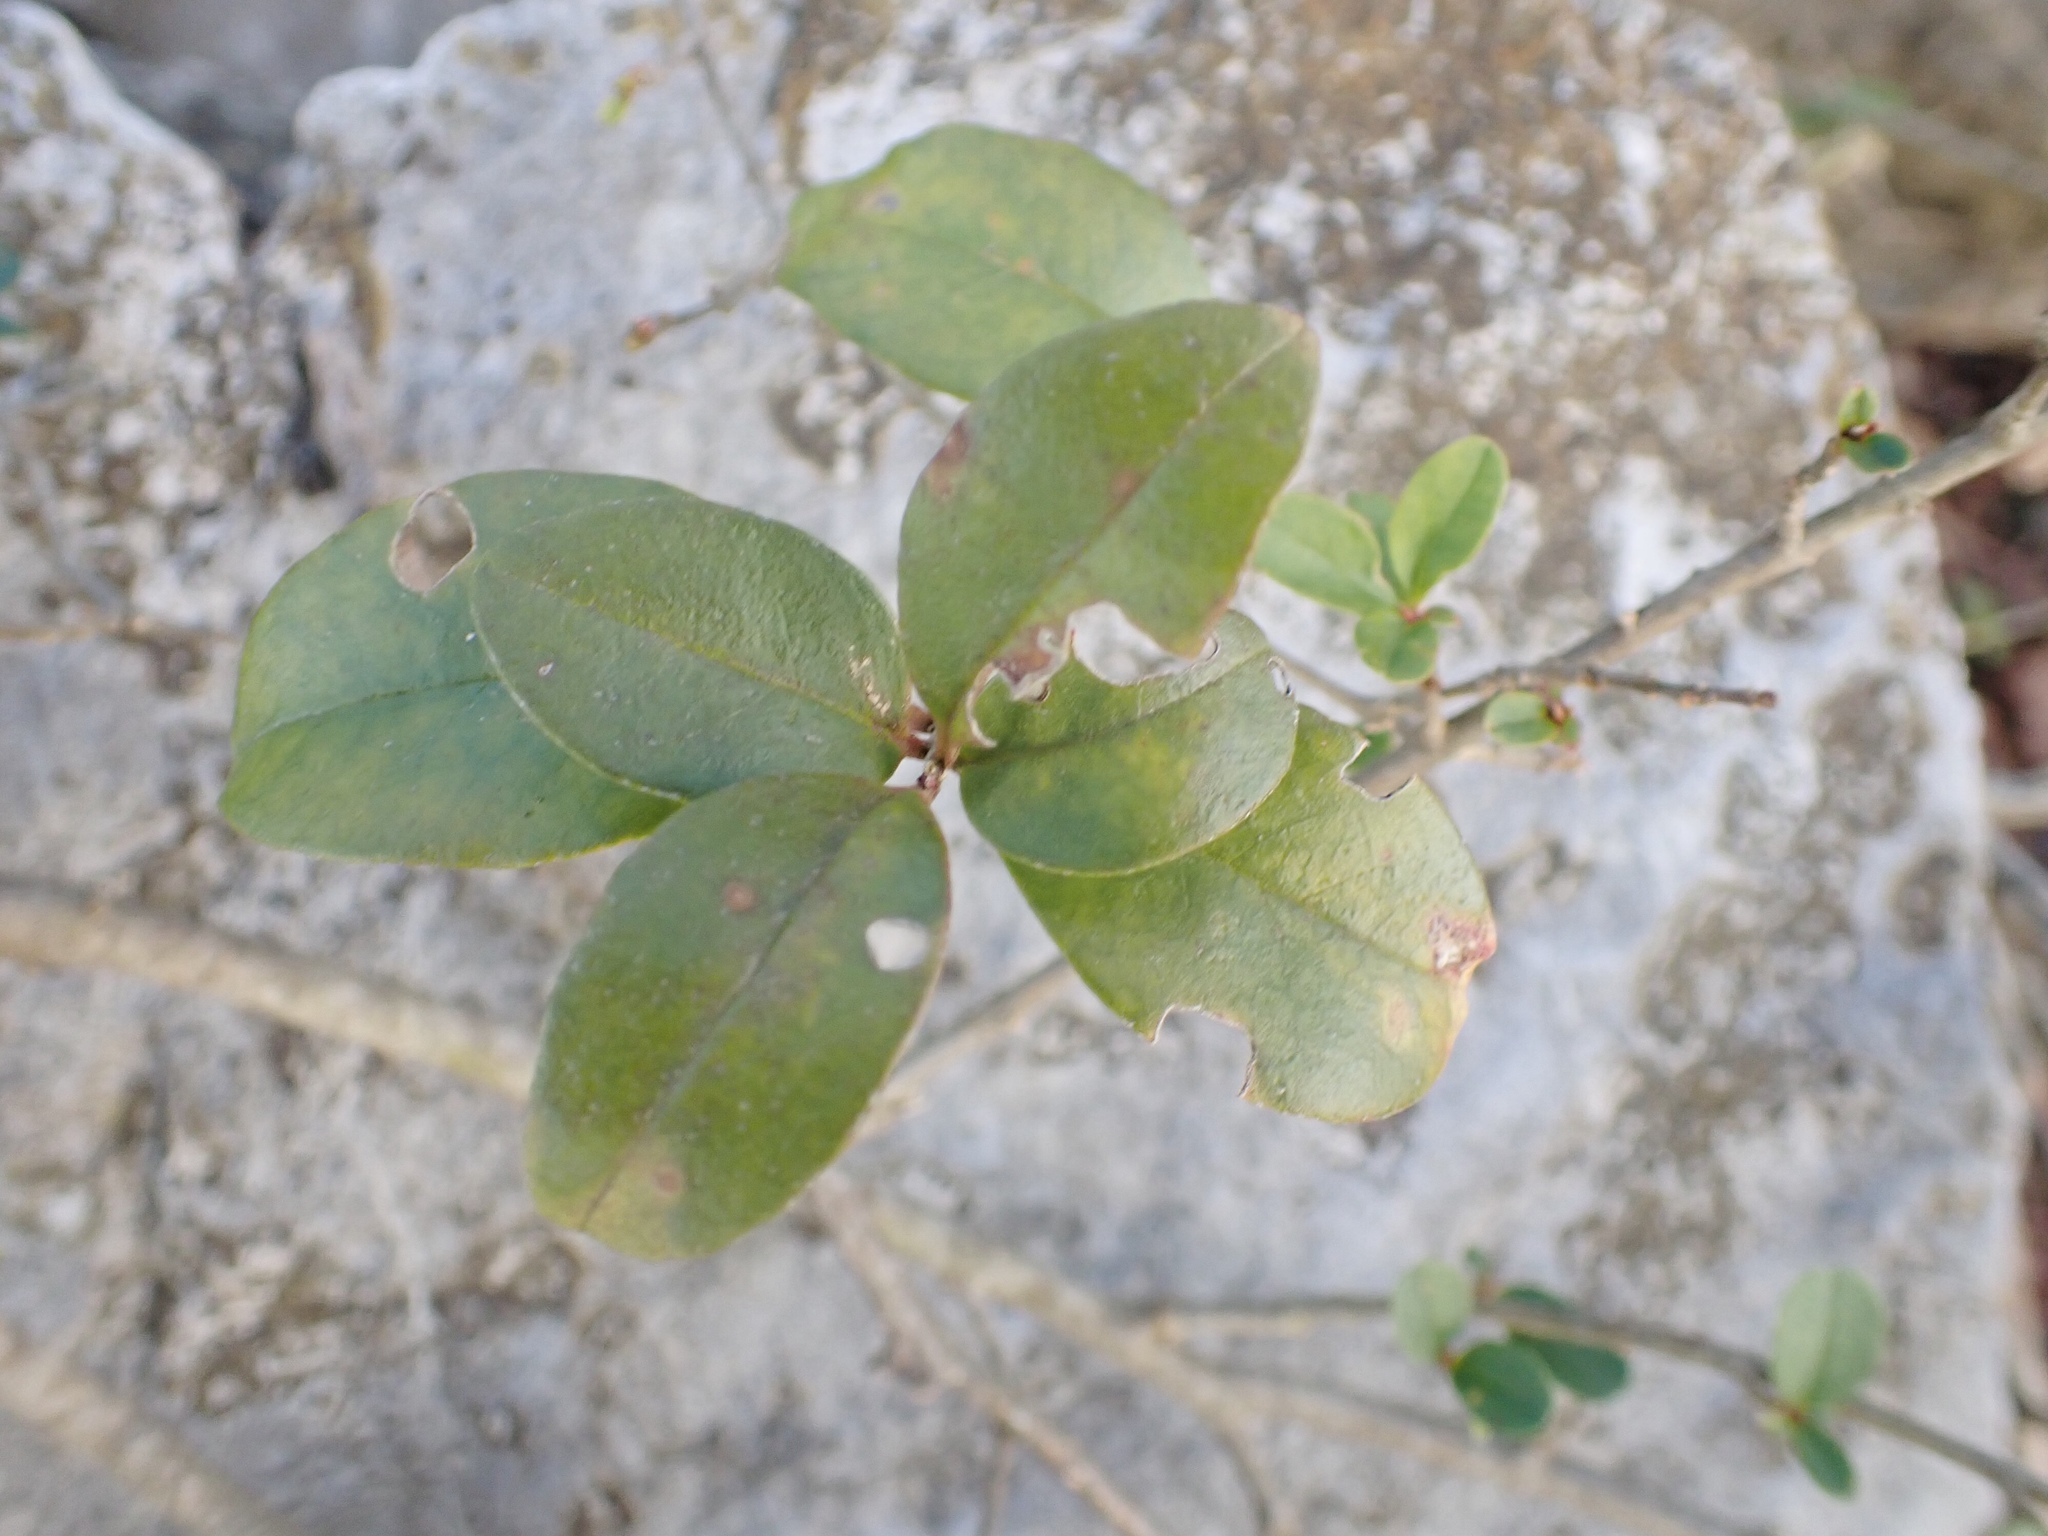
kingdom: Plantae
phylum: Tracheophyta
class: Magnoliopsida
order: Lamiales
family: Oleaceae
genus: Ligustrum
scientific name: Ligustrum sinense
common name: Chinese privet
